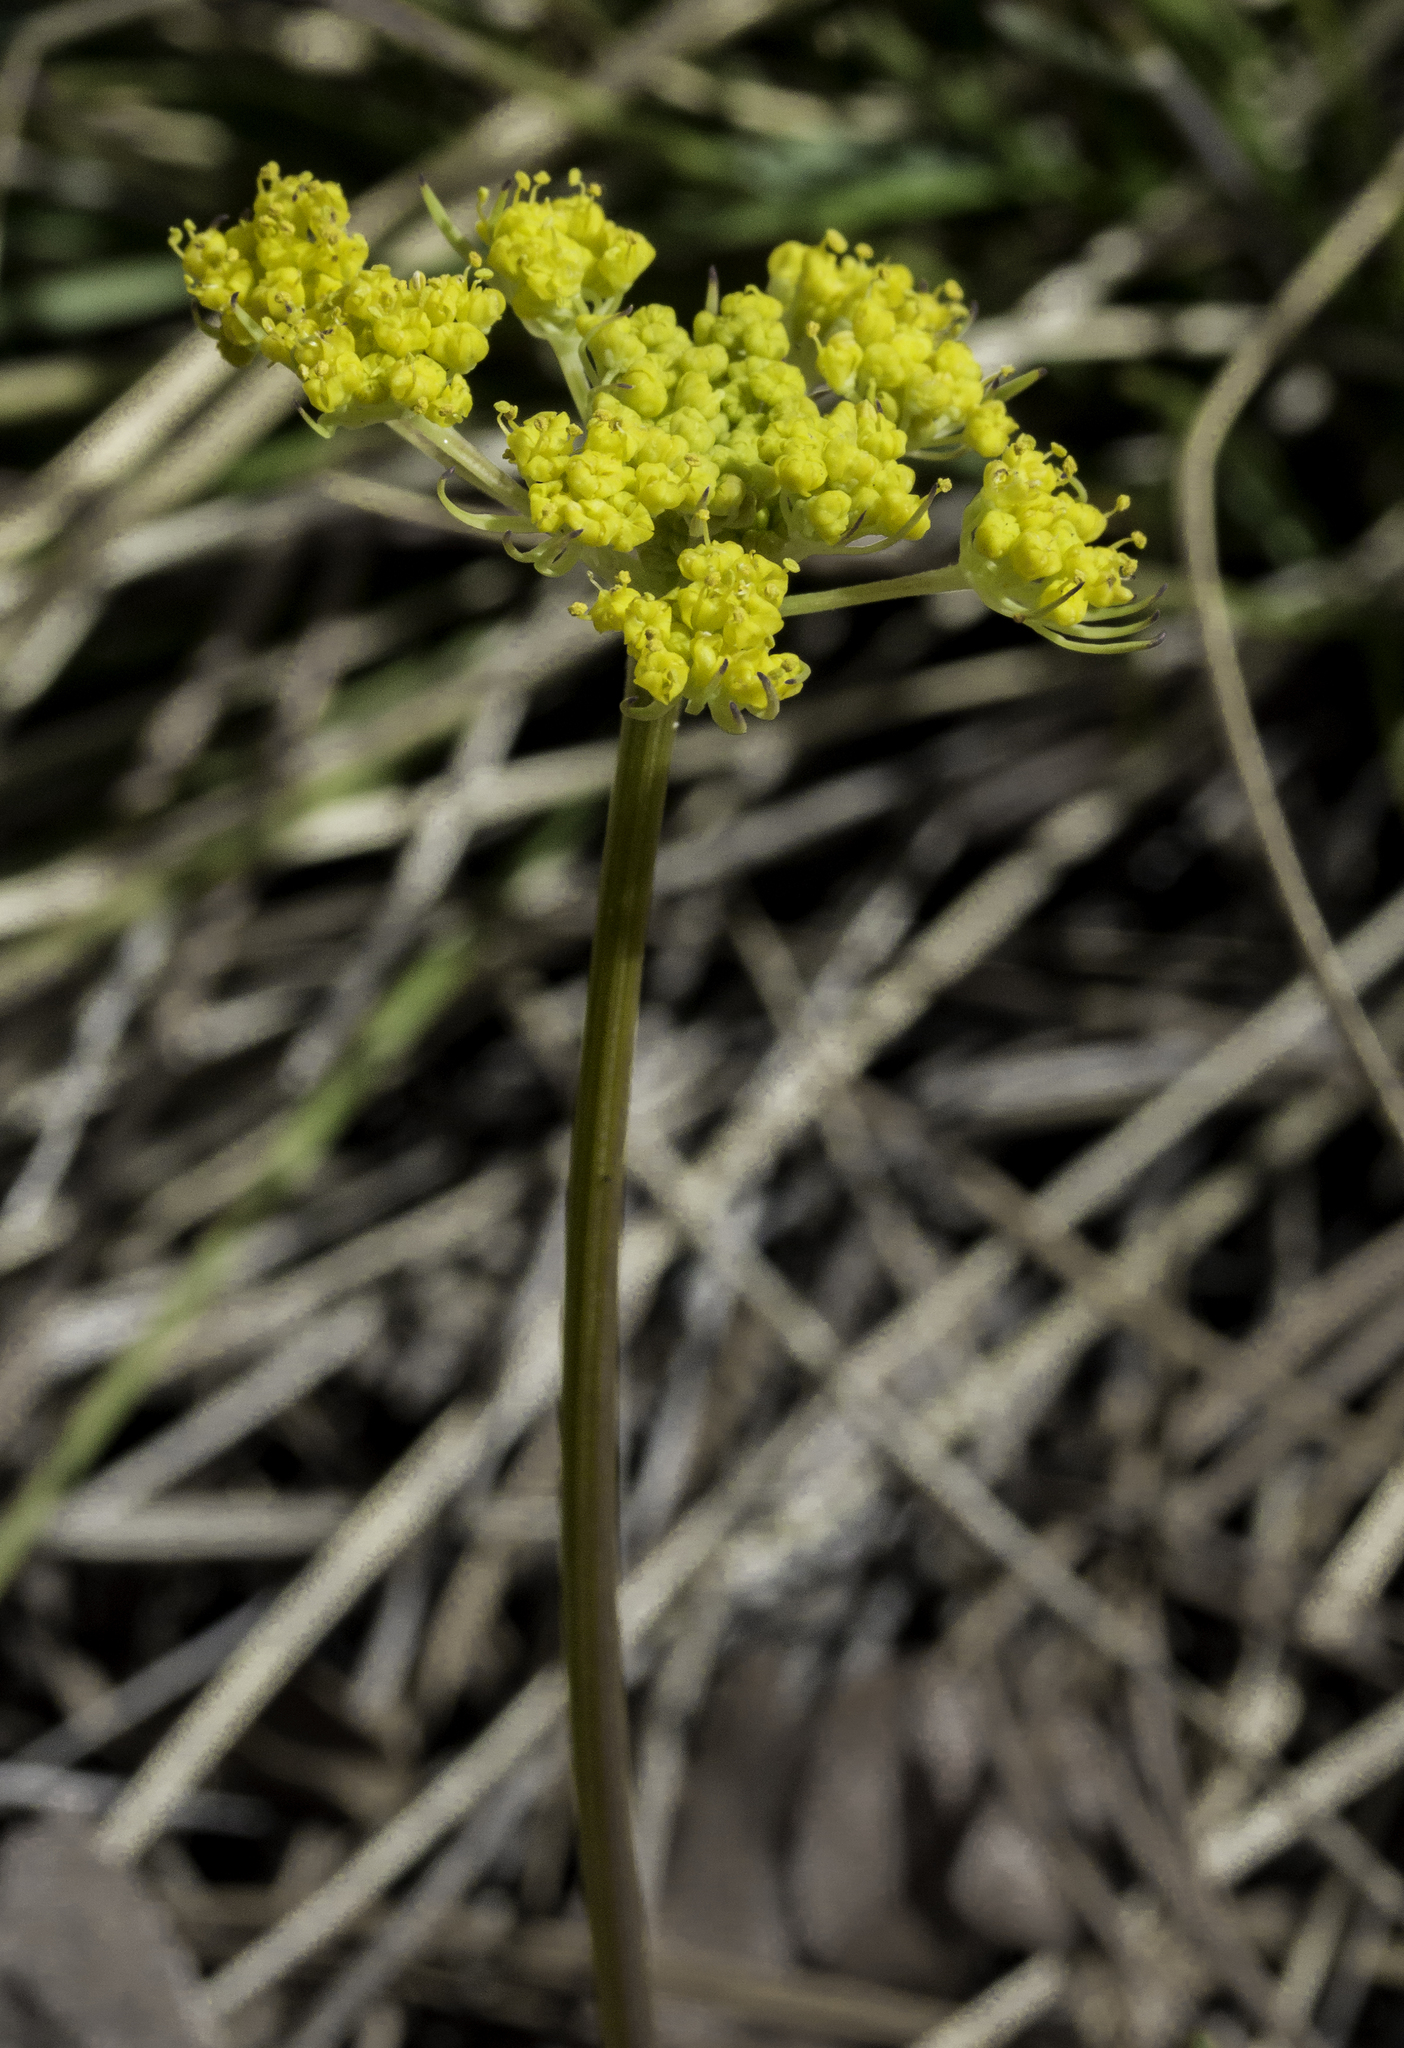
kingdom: Plantae
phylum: Tracheophyta
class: Magnoliopsida
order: Apiales
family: Apiaceae
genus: Cymopterus
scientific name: Cymopterus lemmonii
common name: Lemmon's spring-parsley
